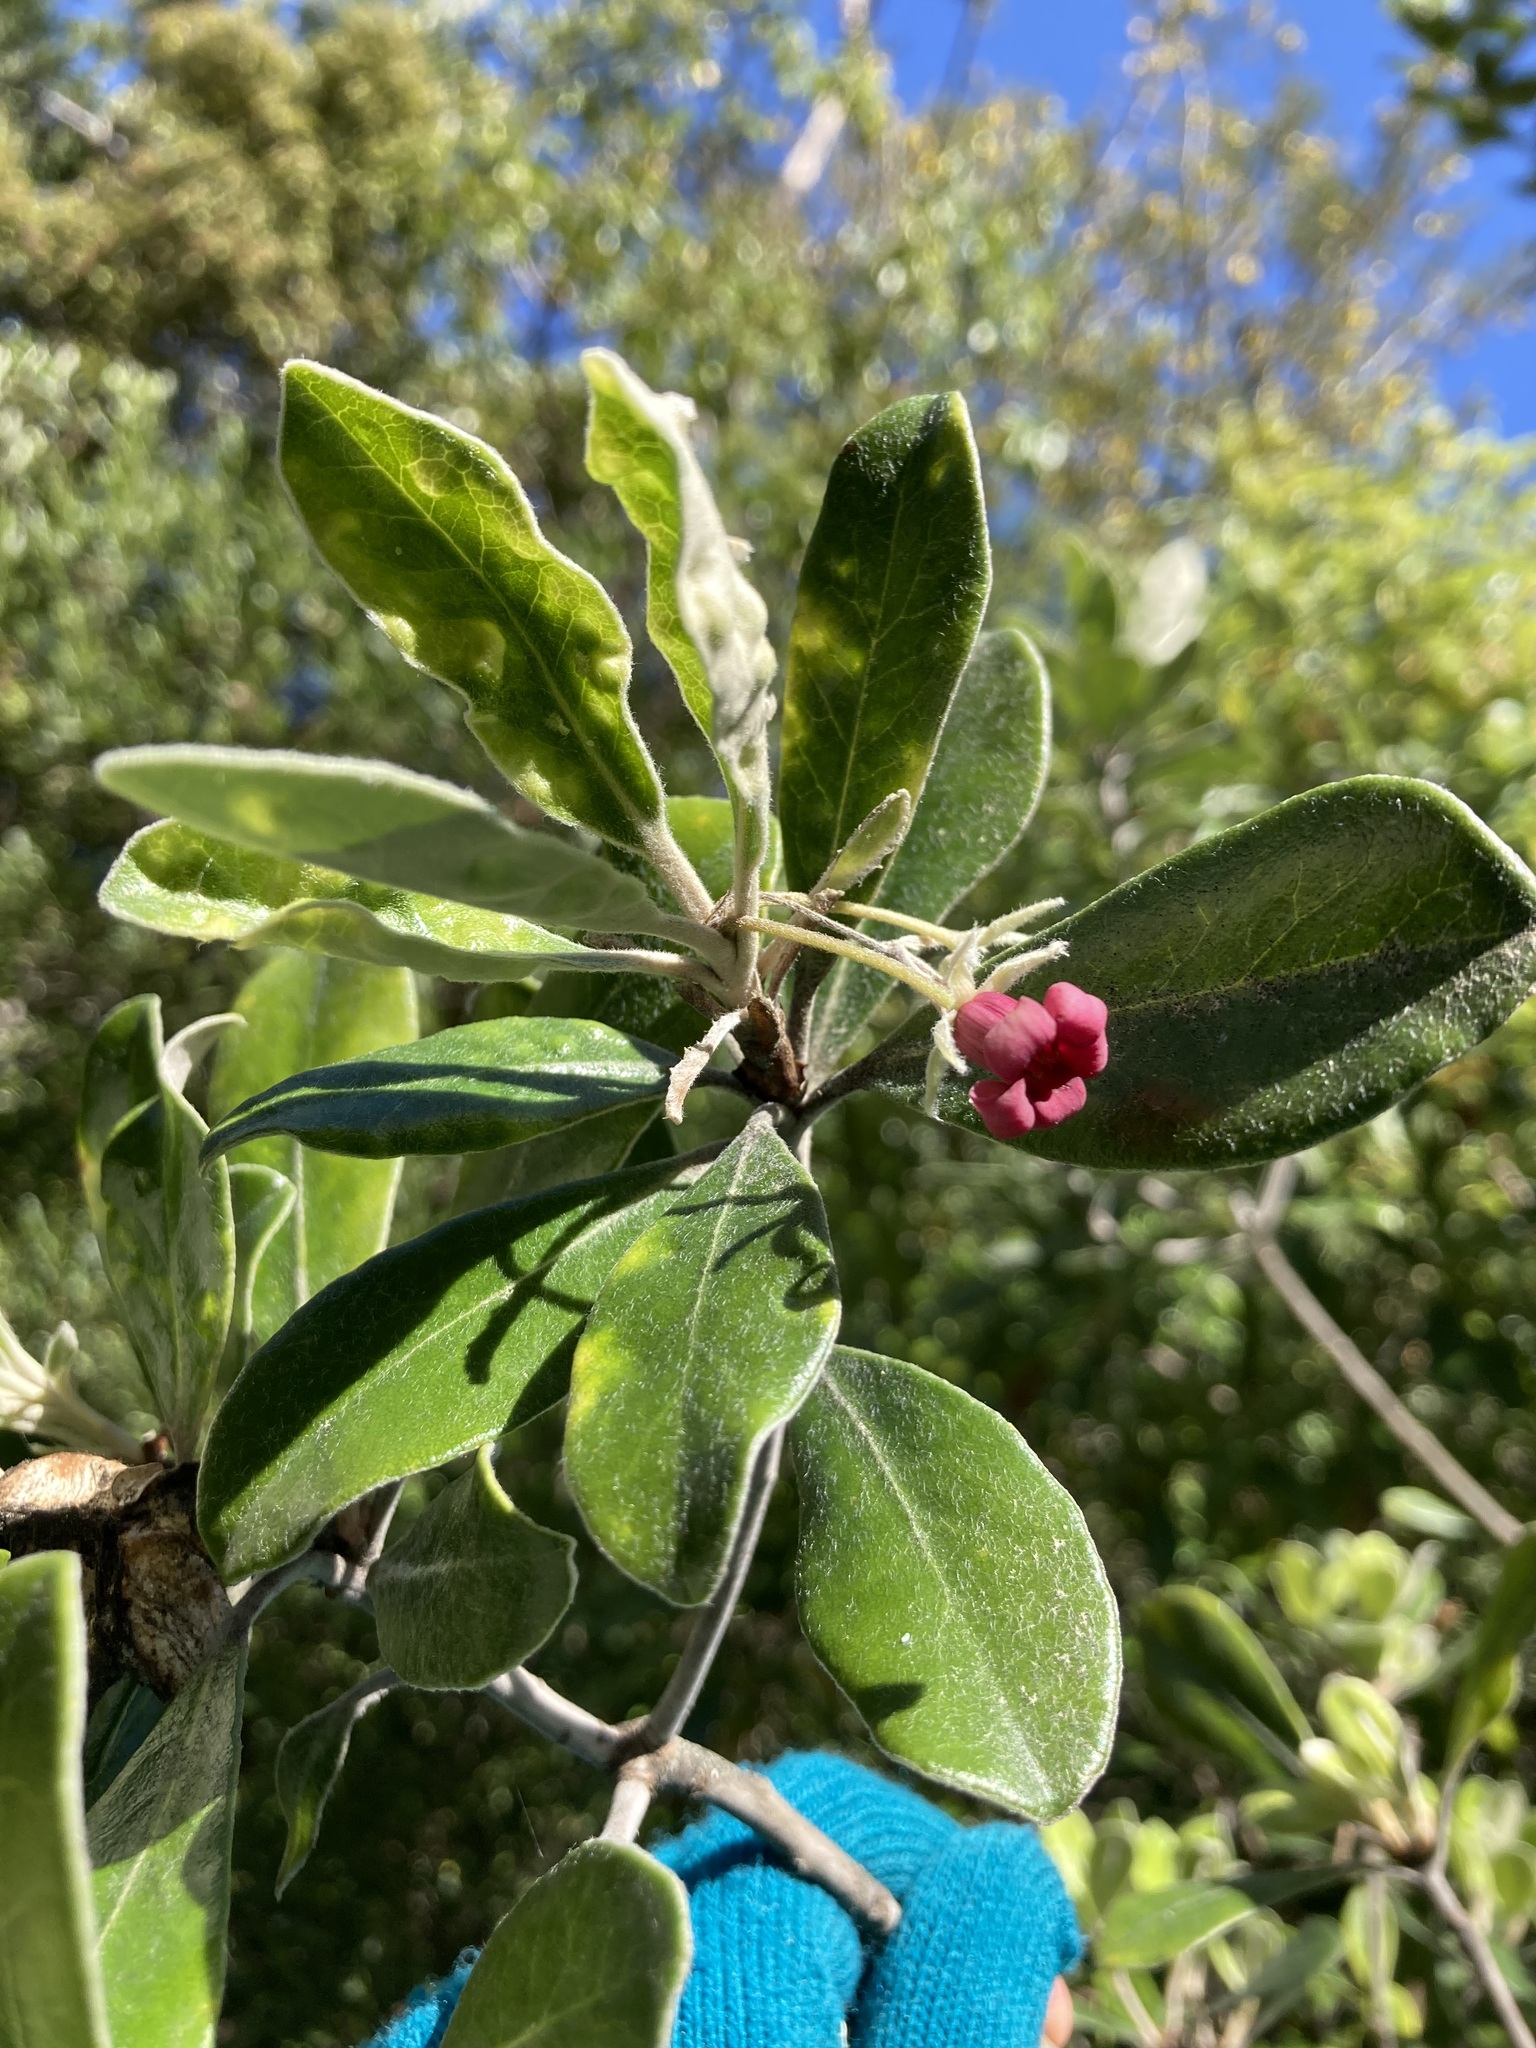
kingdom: Plantae
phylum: Tracheophyta
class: Magnoliopsida
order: Apiales
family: Pittosporaceae
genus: Pittosporum
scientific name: Pittosporum crassifolium
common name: Karo
